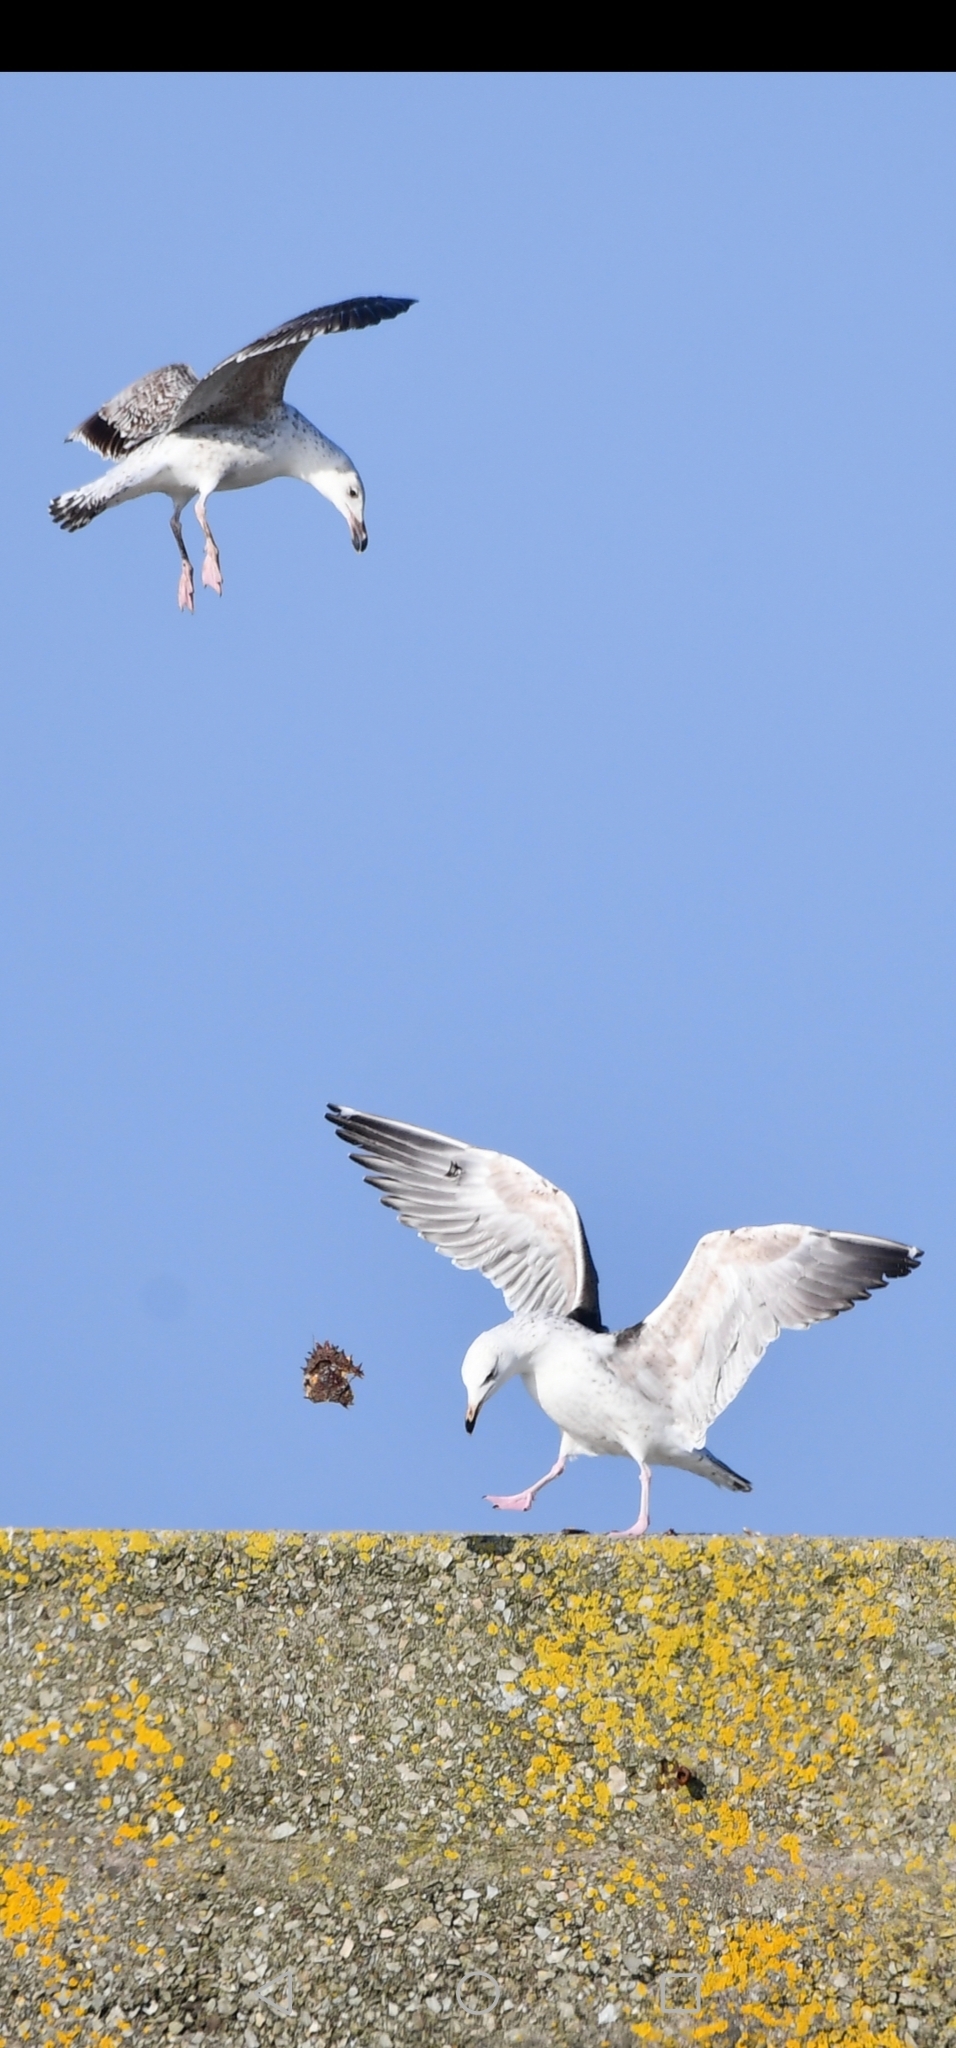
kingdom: Animalia
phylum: Chordata
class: Aves
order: Charadriiformes
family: Laridae
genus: Larus
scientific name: Larus marinus
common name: Great black-backed gull
